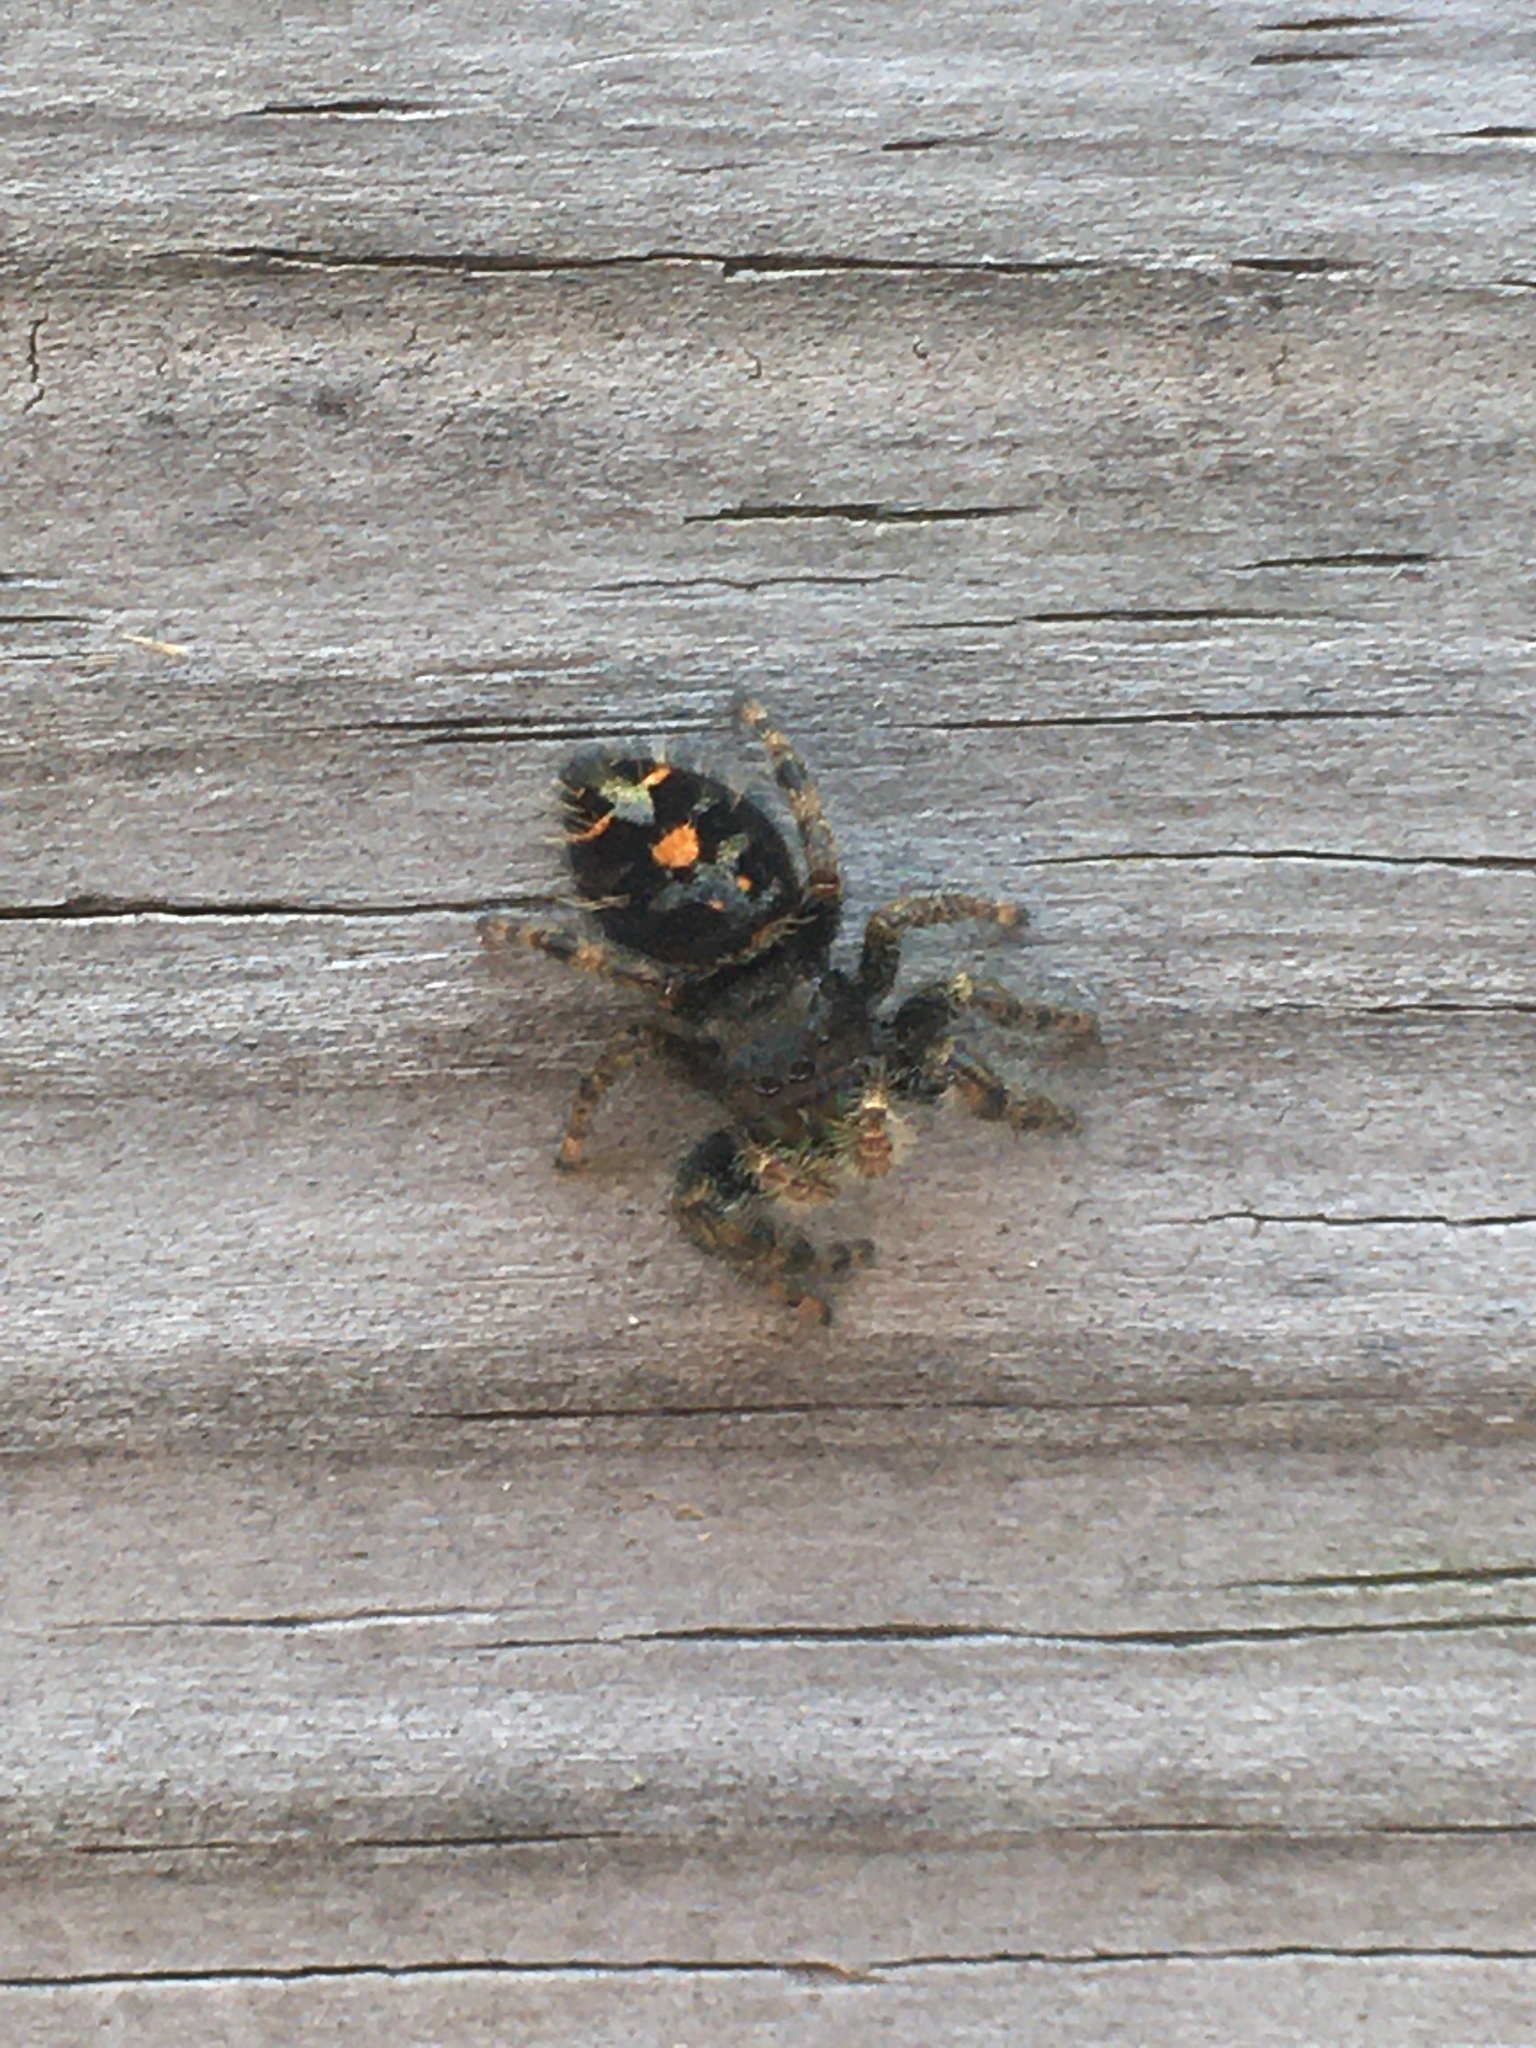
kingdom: Animalia
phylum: Arthropoda
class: Arachnida
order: Araneae
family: Salticidae
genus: Phidippus
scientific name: Phidippus audax
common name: Bold jumper
